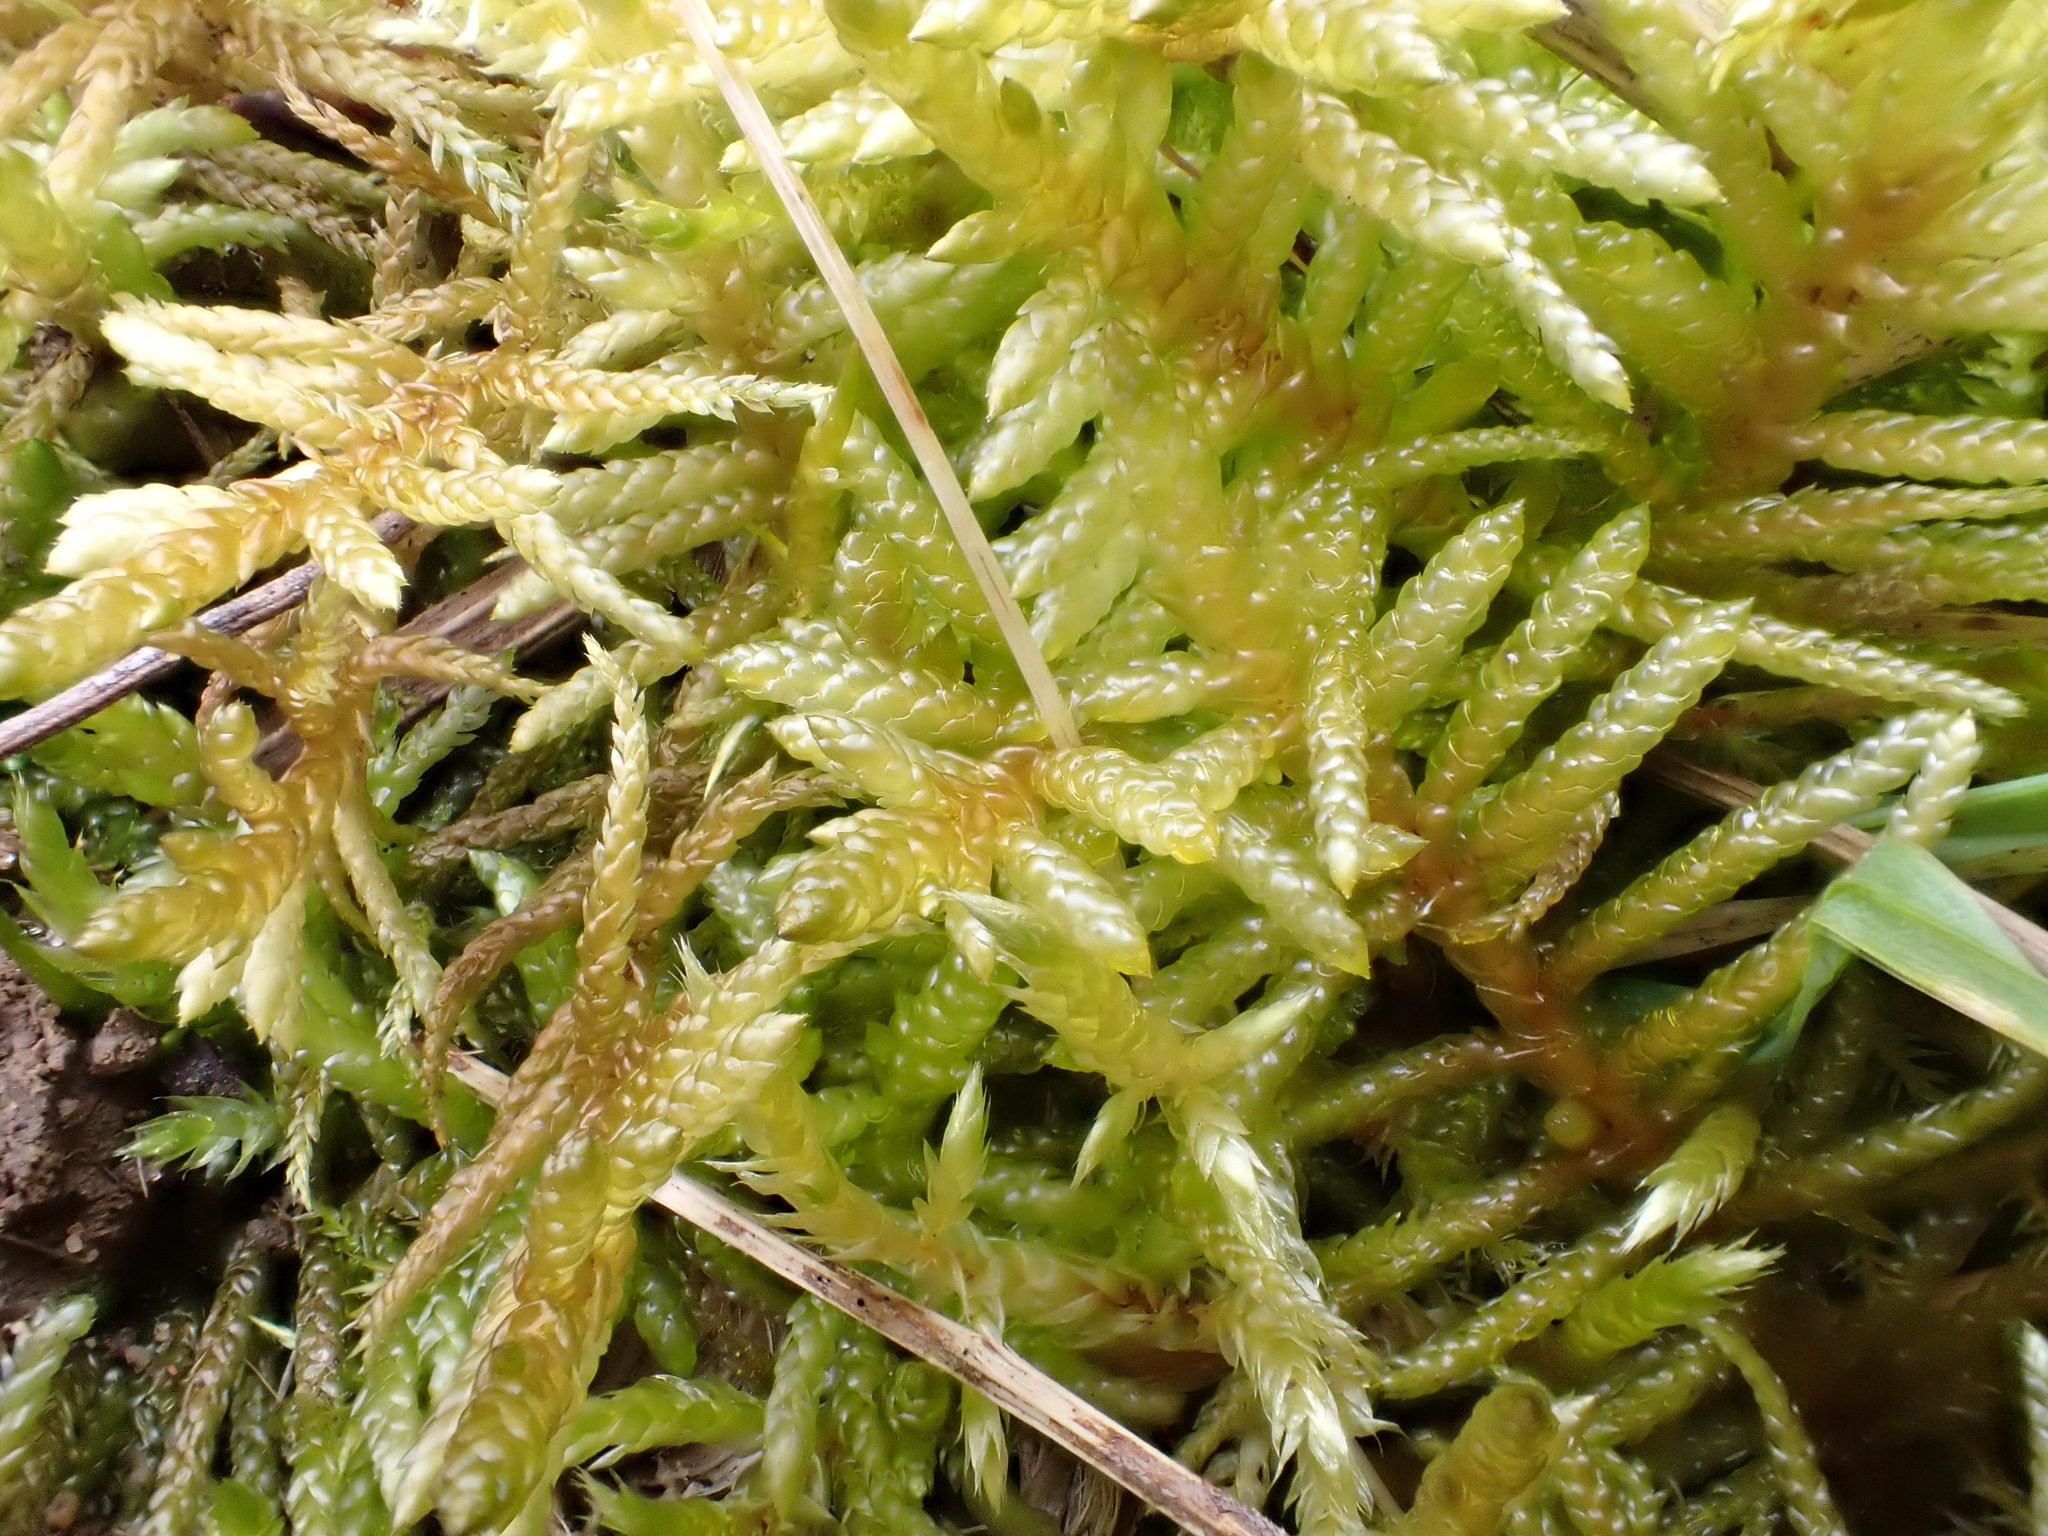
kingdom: Plantae
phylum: Bryophyta
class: Bryopsida
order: Hypnales
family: Brachytheciaceae
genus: Pseudoscleropodium
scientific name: Pseudoscleropodium purum
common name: Neat feather-moss
